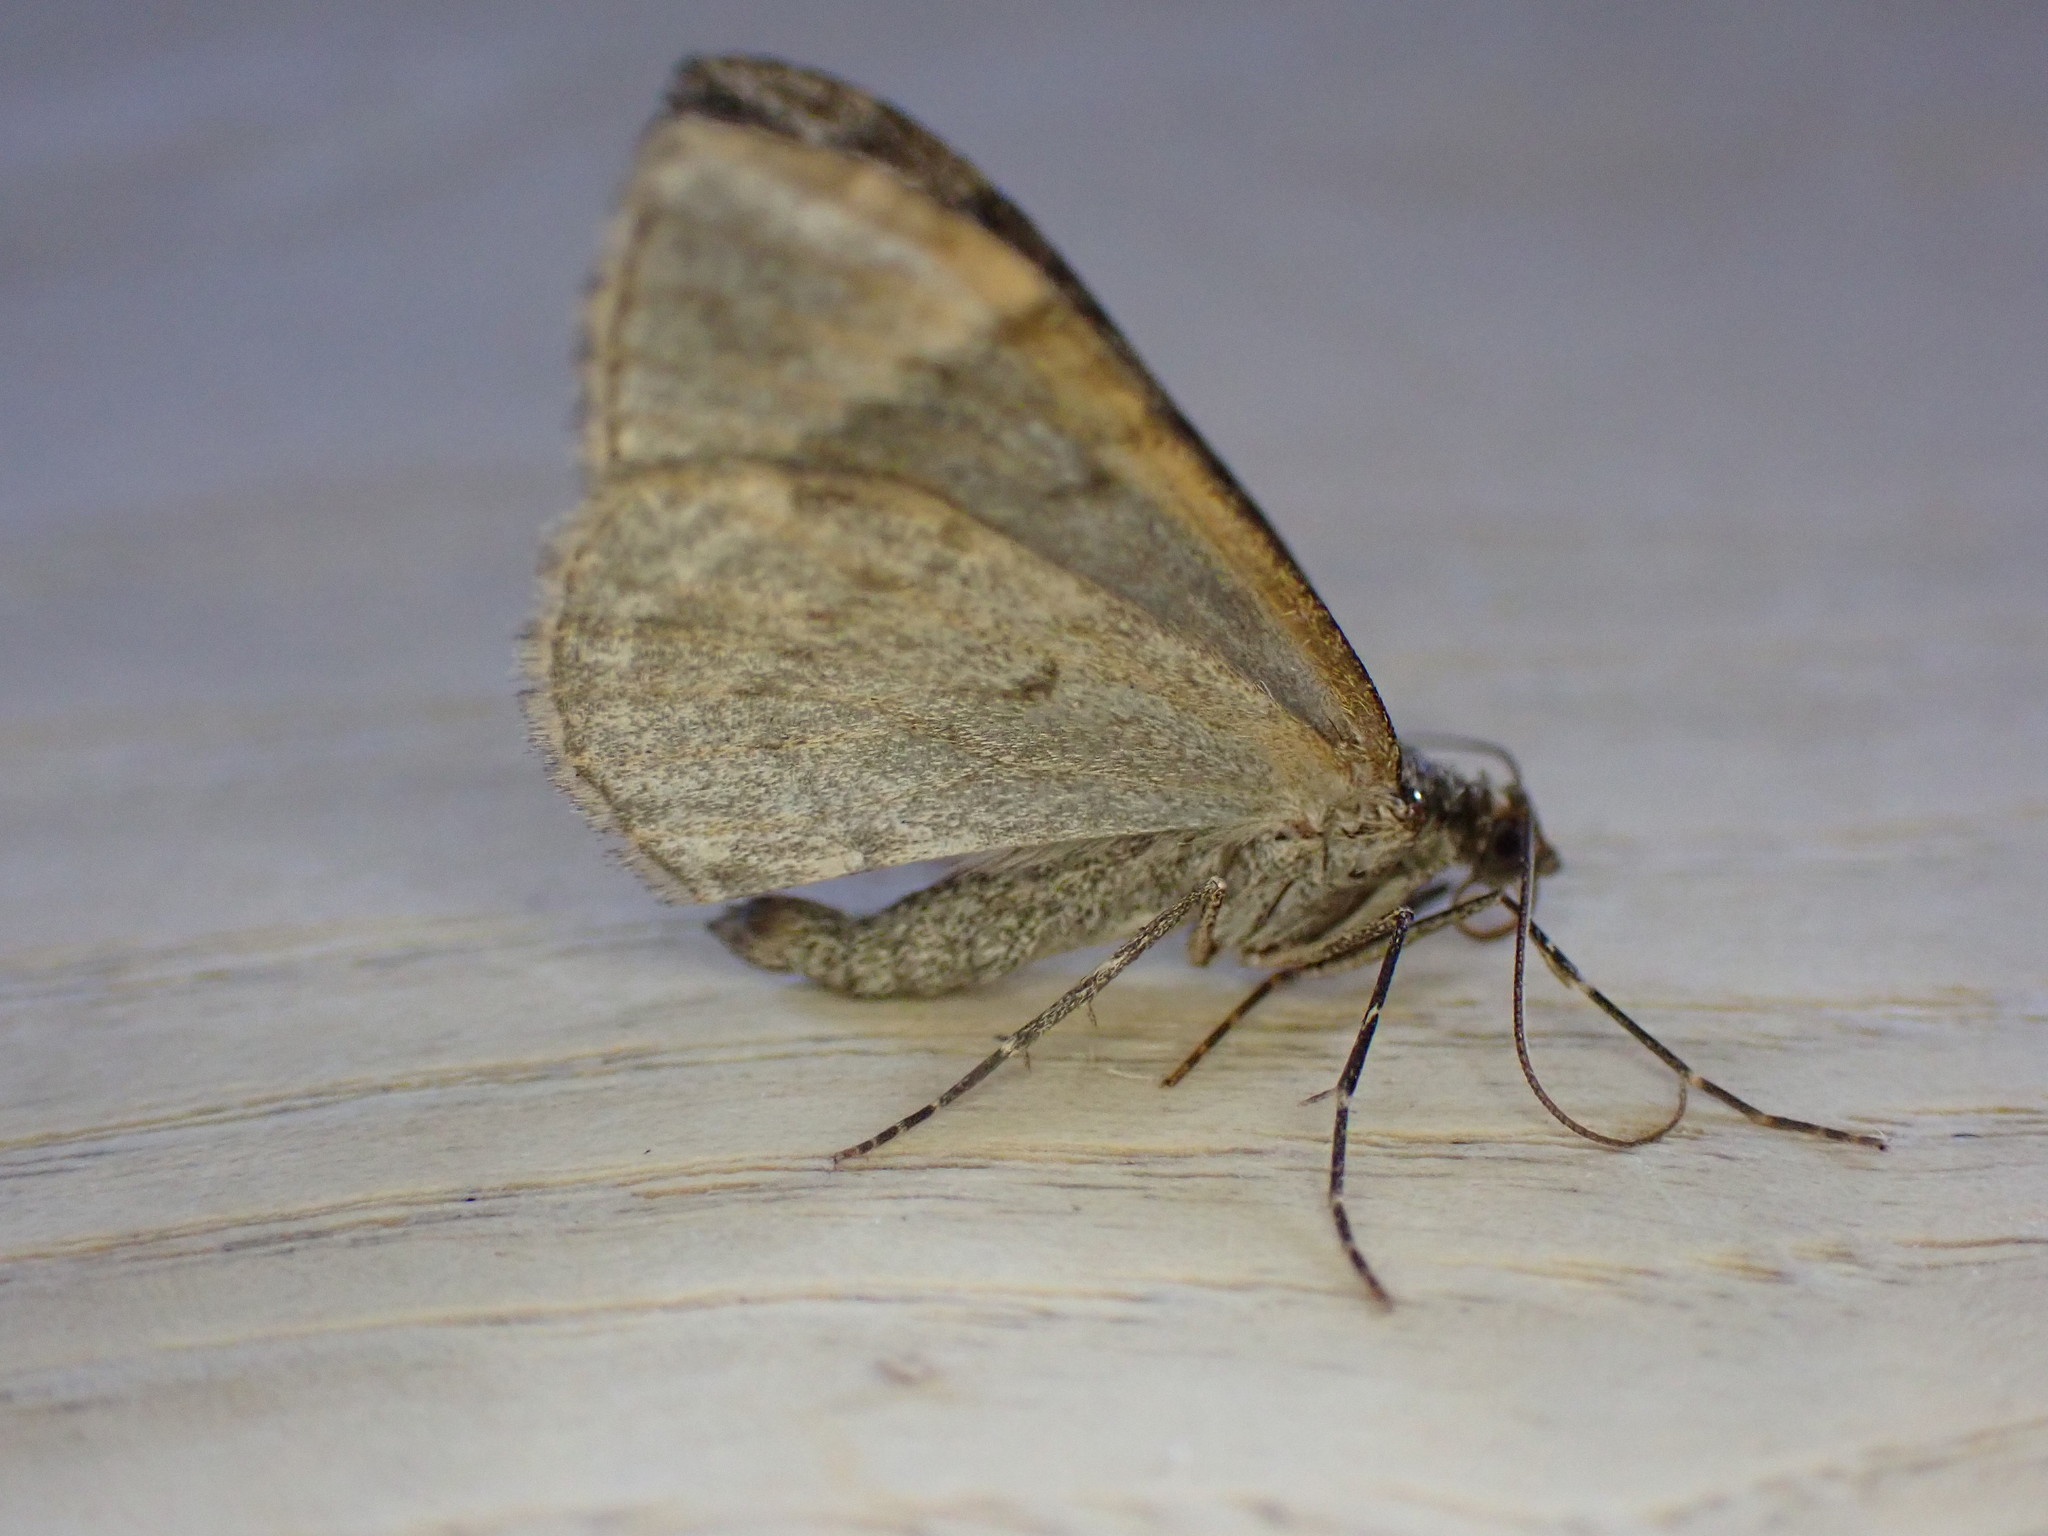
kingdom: Animalia
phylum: Arthropoda
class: Insecta
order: Lepidoptera
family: Geometridae
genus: Dysstroma
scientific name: Dysstroma truncata
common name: Common marbled carpet
